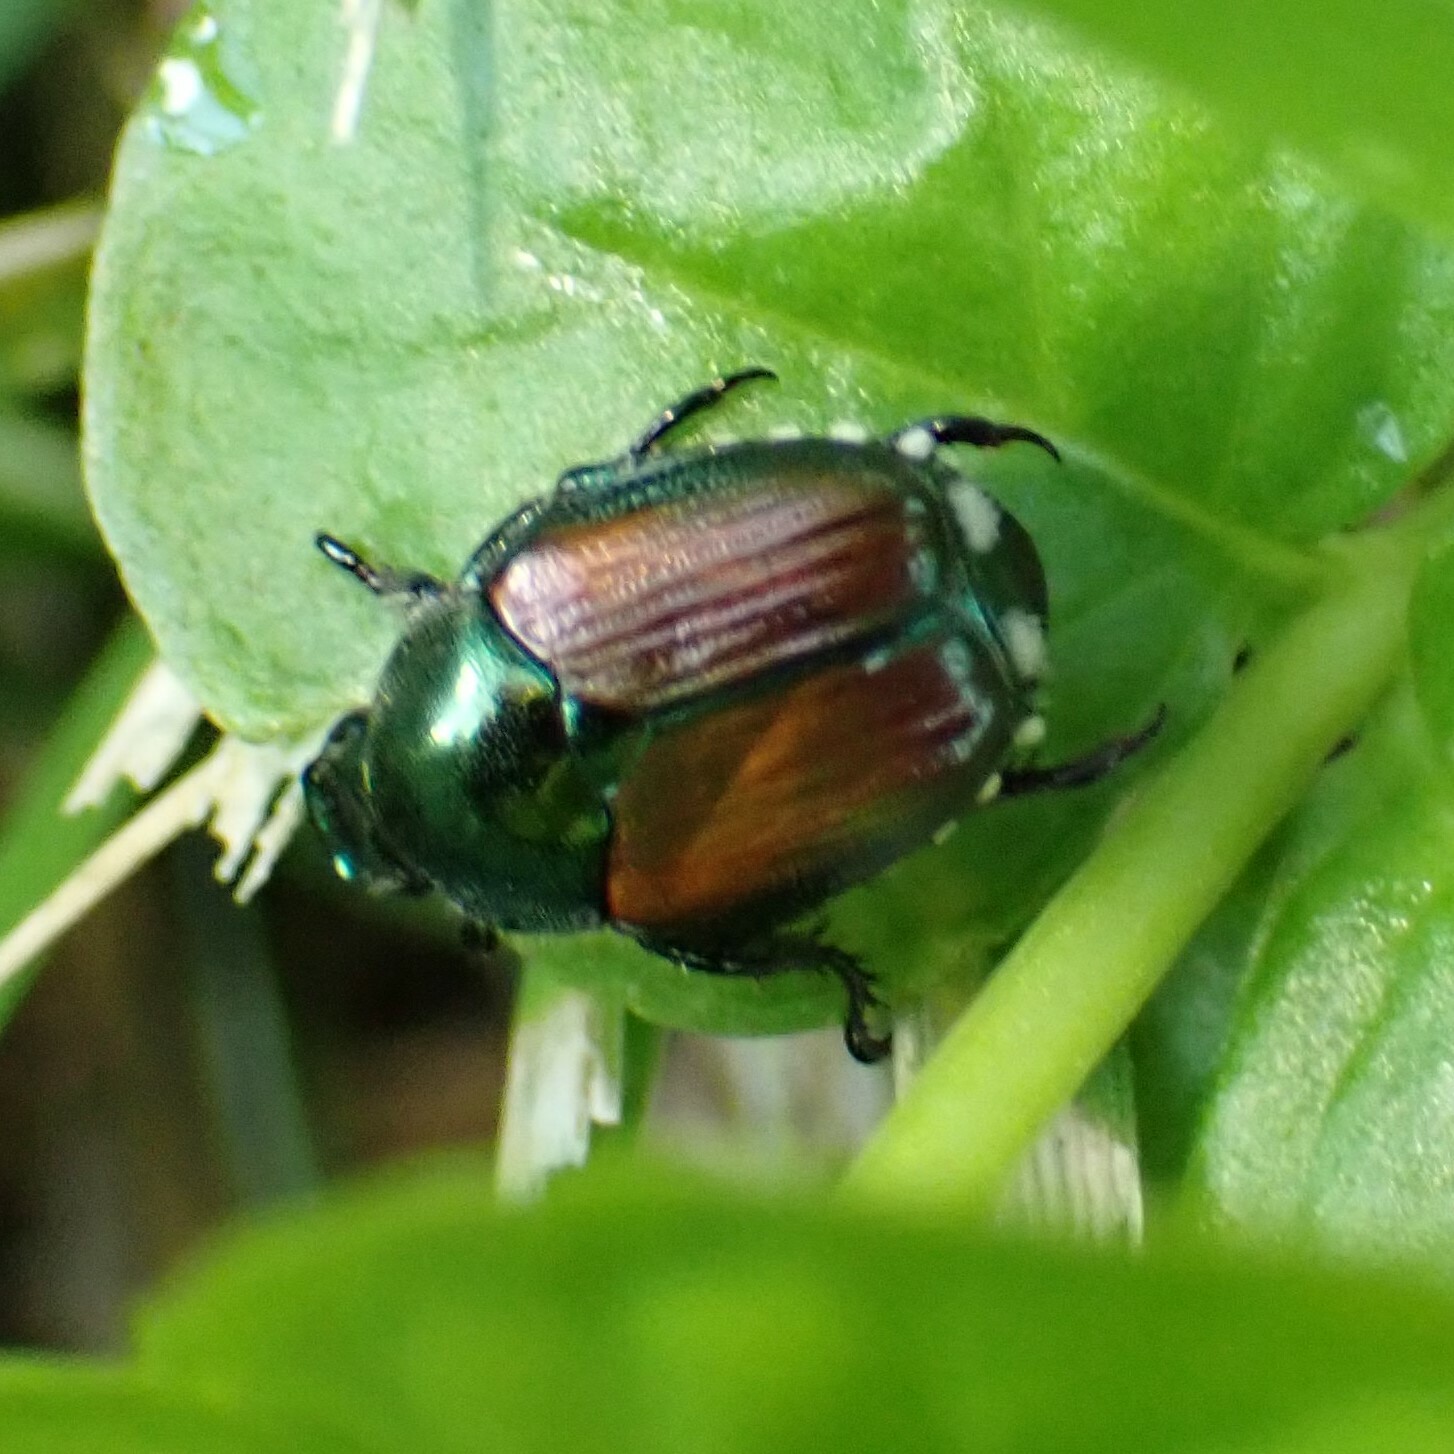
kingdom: Animalia
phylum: Arthropoda
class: Insecta
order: Coleoptera
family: Scarabaeidae
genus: Popillia
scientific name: Popillia japonica
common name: Japanese beetle
